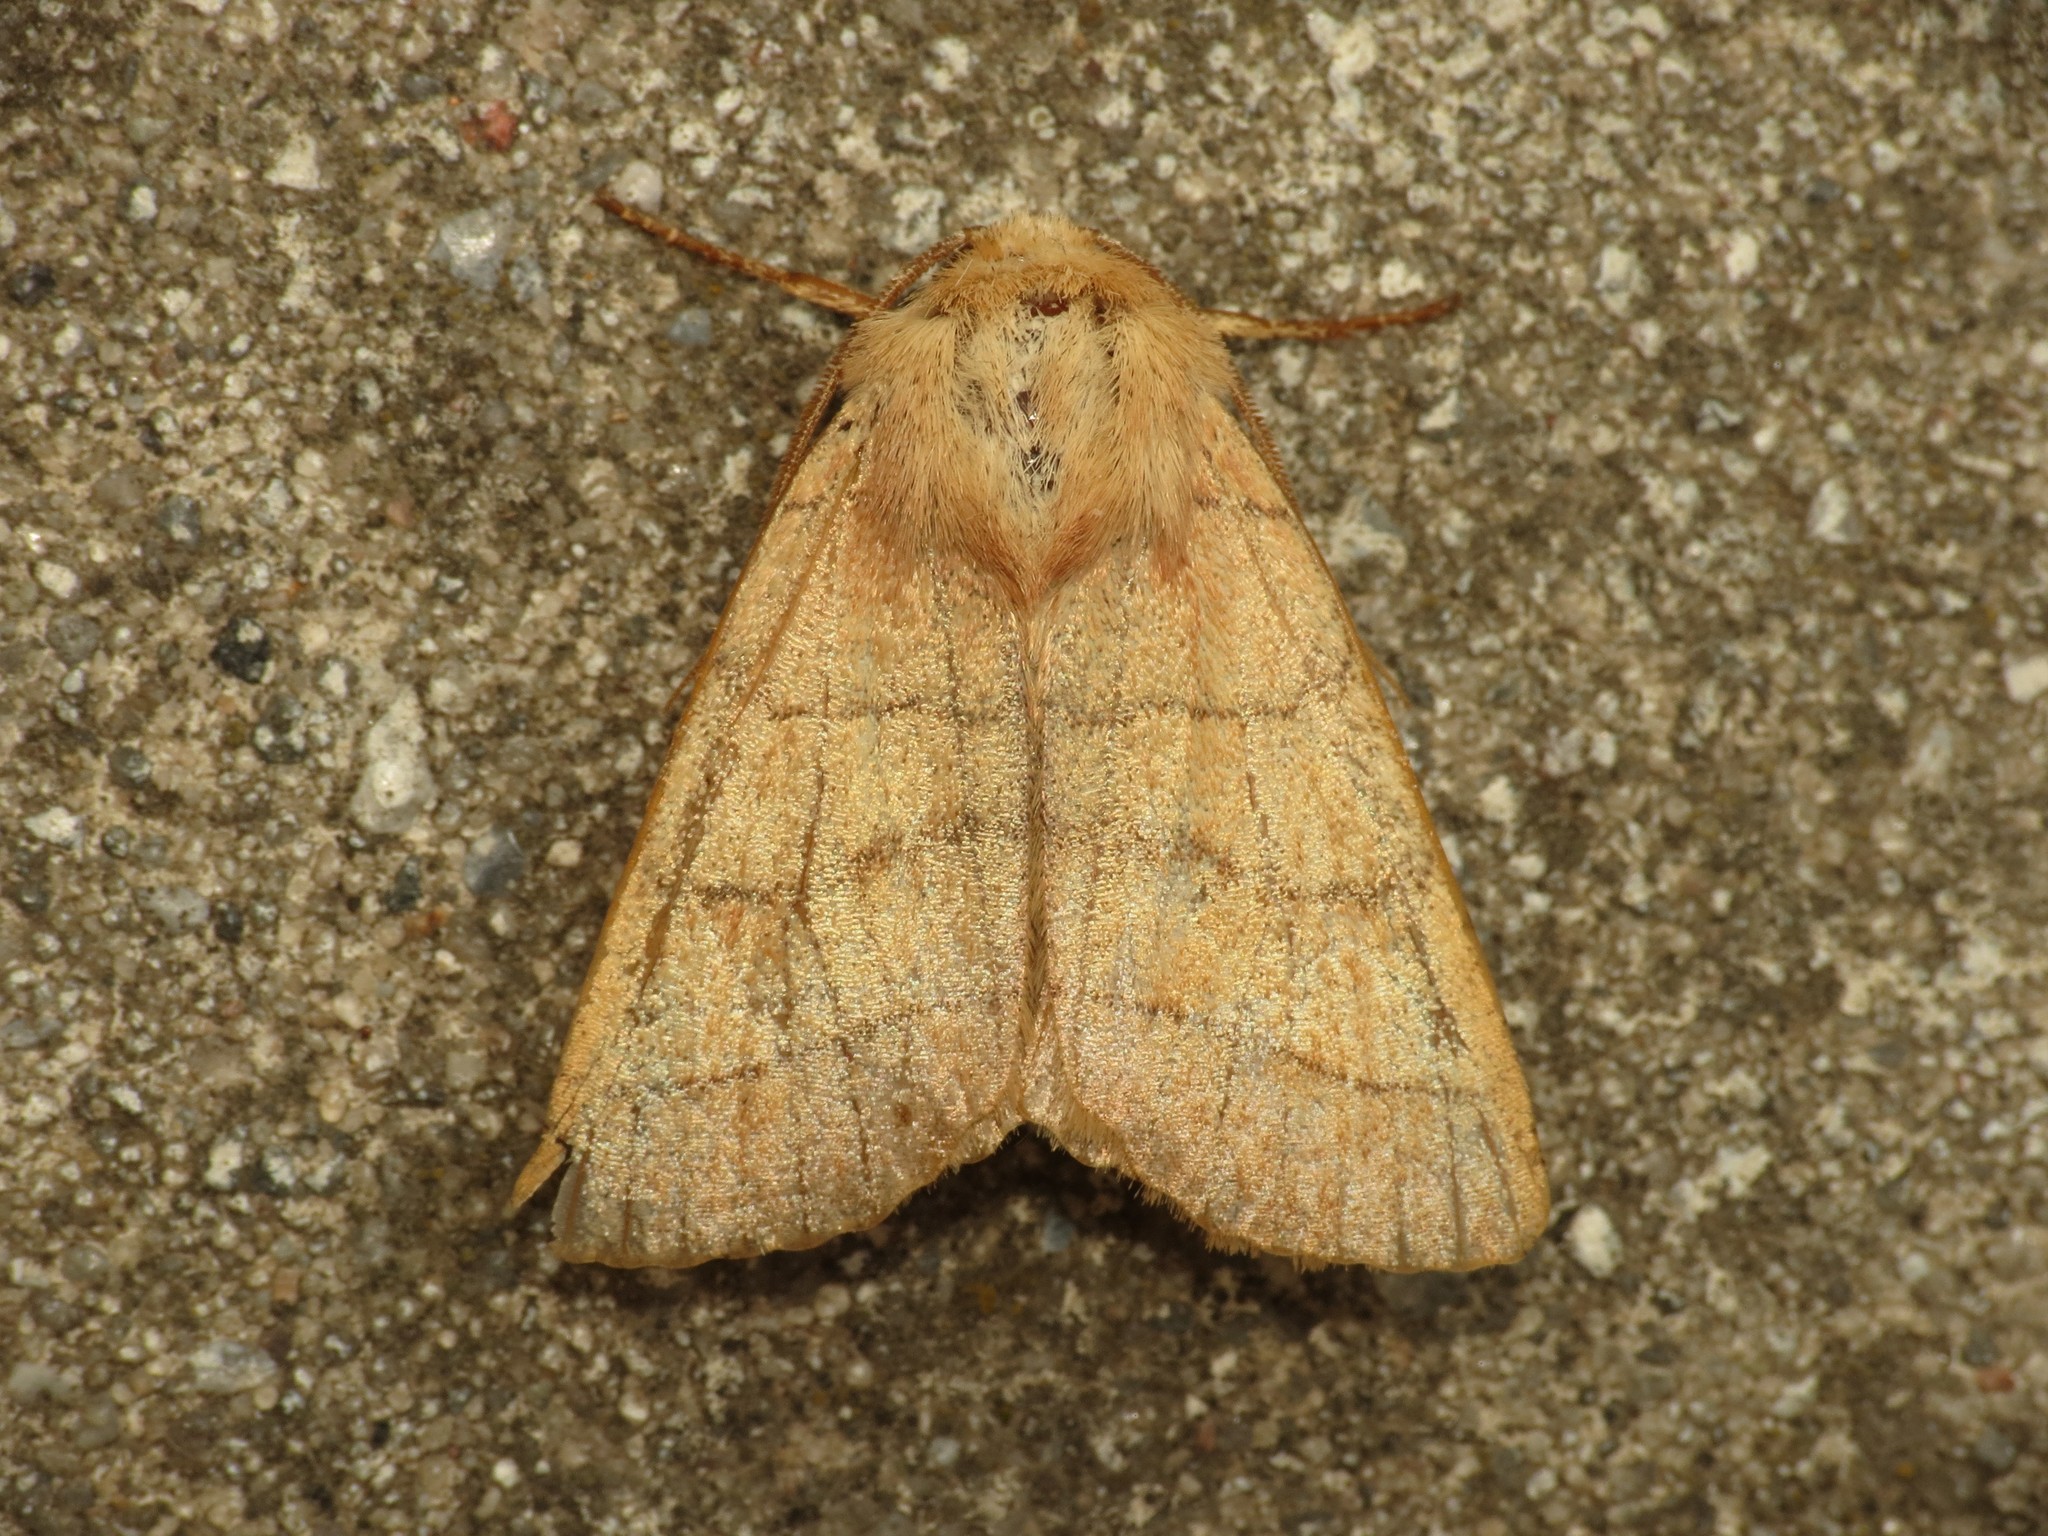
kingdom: Animalia
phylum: Arthropoda
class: Insecta
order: Lepidoptera
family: Noctuidae
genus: Charanyca
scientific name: Charanyca trigrammica
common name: Treble lines
